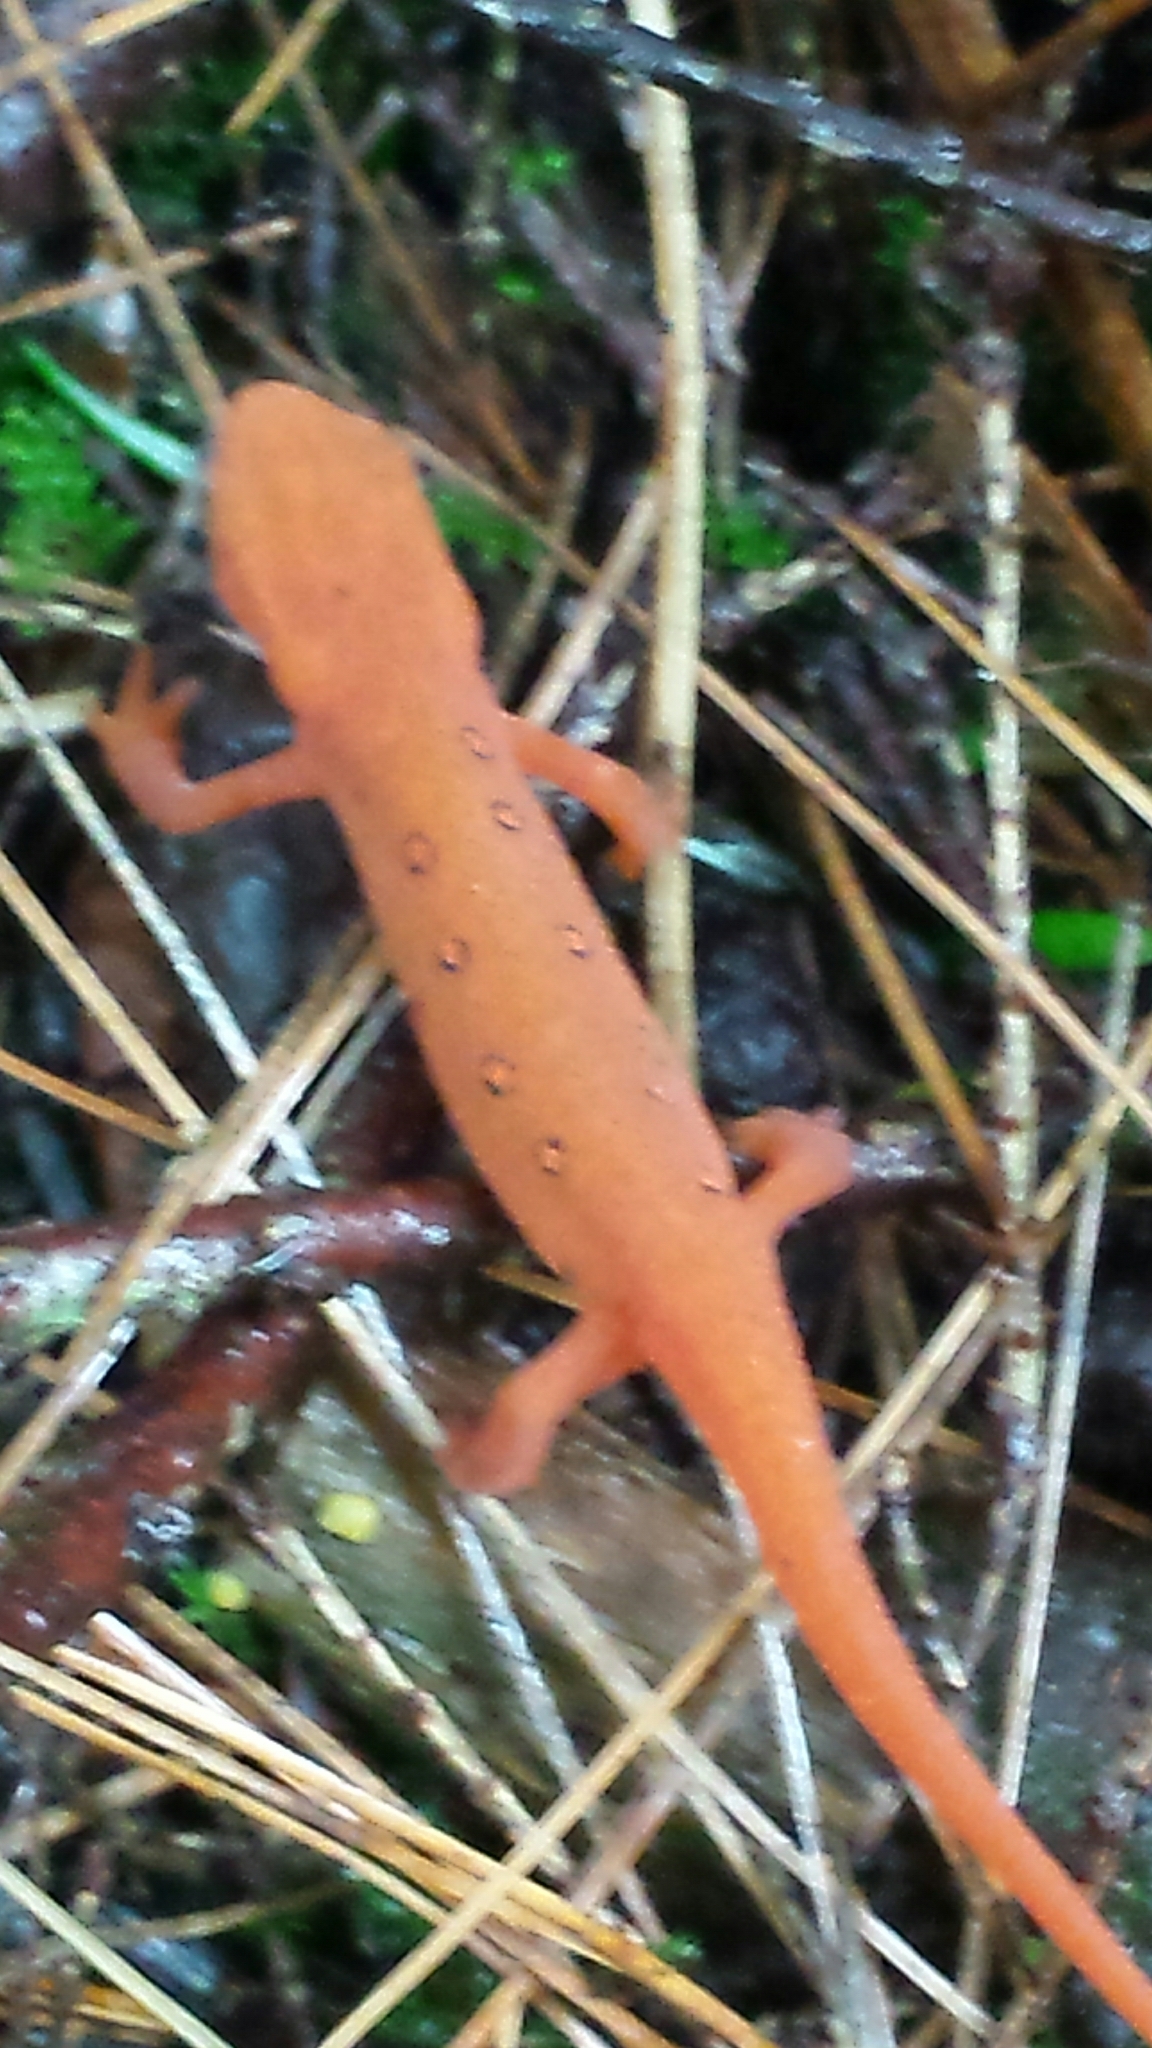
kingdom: Animalia
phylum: Chordata
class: Amphibia
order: Caudata
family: Salamandridae
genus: Notophthalmus
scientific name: Notophthalmus viridescens
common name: Eastern newt
